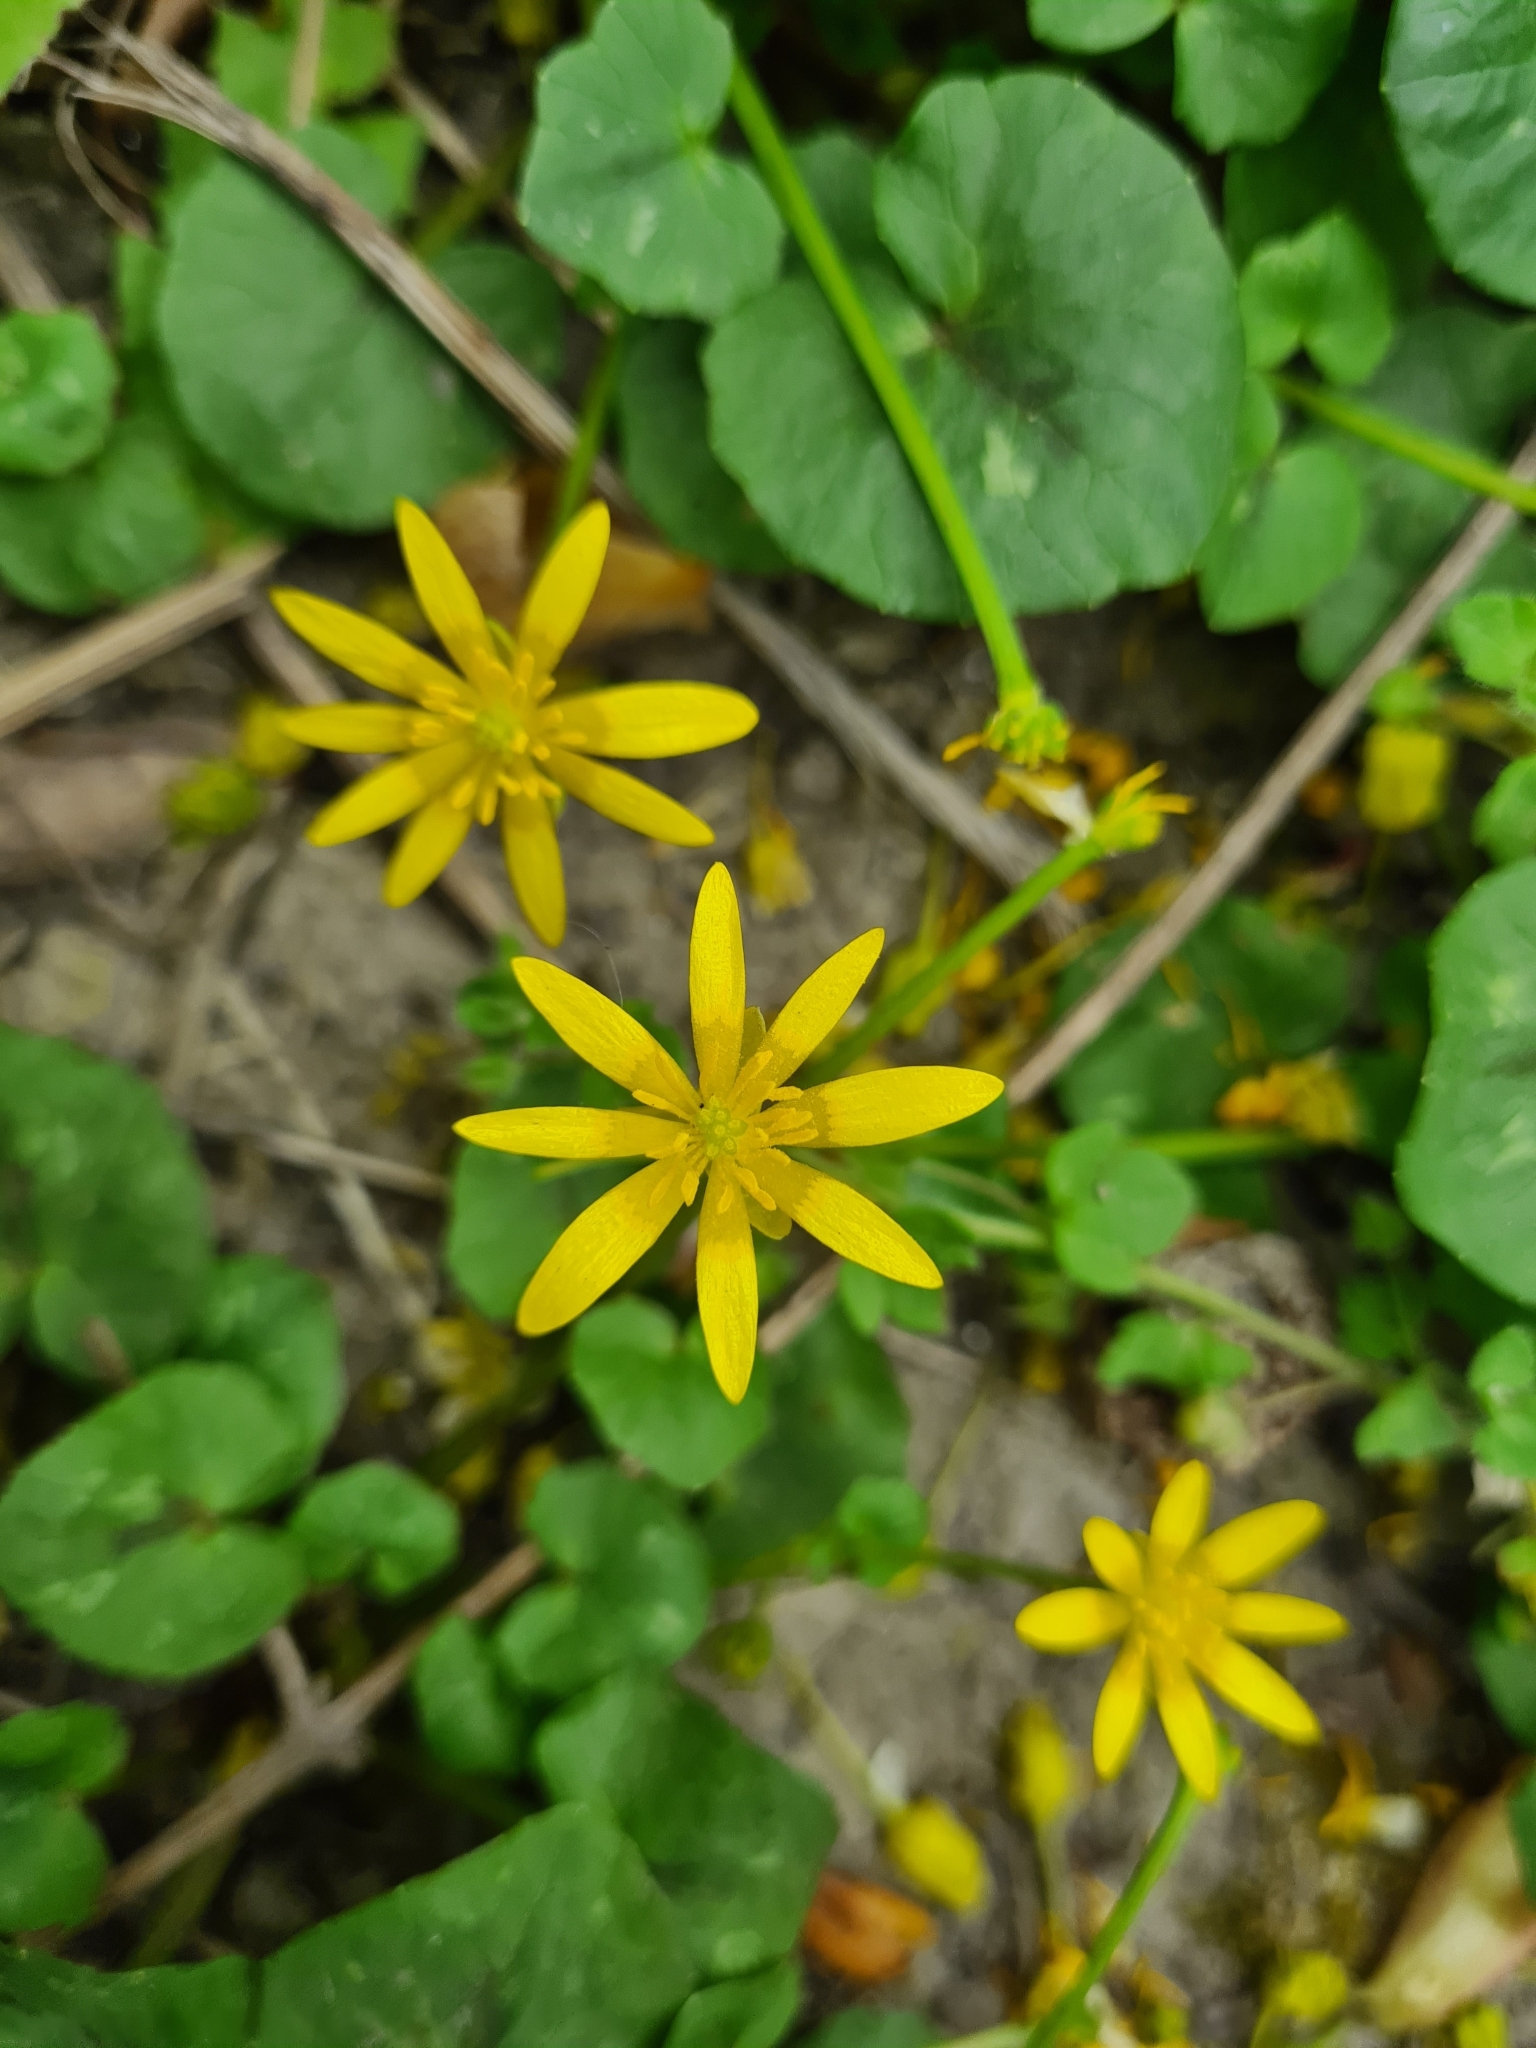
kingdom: Plantae
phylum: Tracheophyta
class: Magnoliopsida
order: Ranunculales
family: Ranunculaceae
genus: Ficaria
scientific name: Ficaria verna
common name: Lesser celandine
